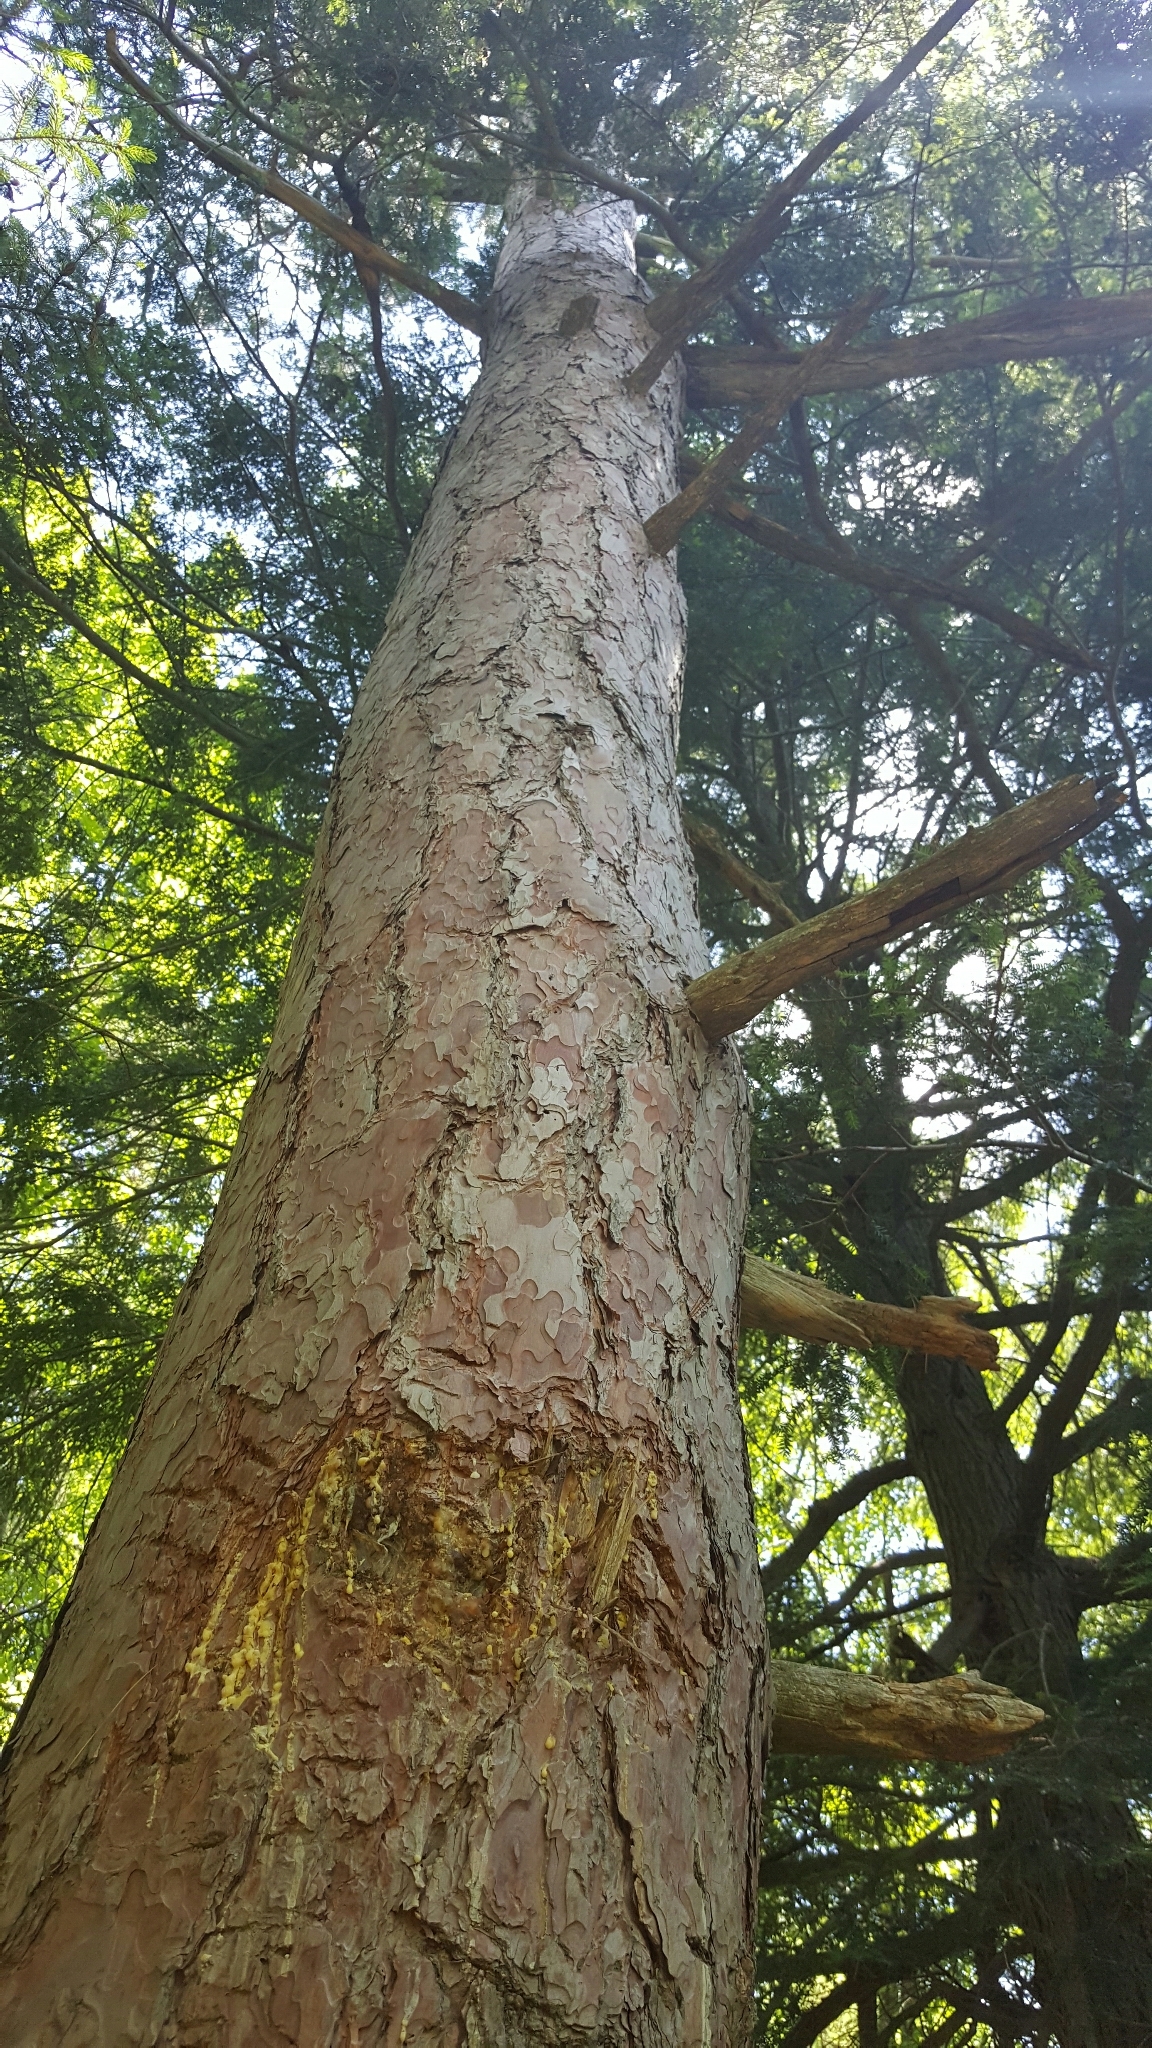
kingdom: Plantae
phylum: Tracheophyta
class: Pinopsida
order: Pinales
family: Pinaceae
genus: Pinus
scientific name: Pinus resinosa
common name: Norway pine
